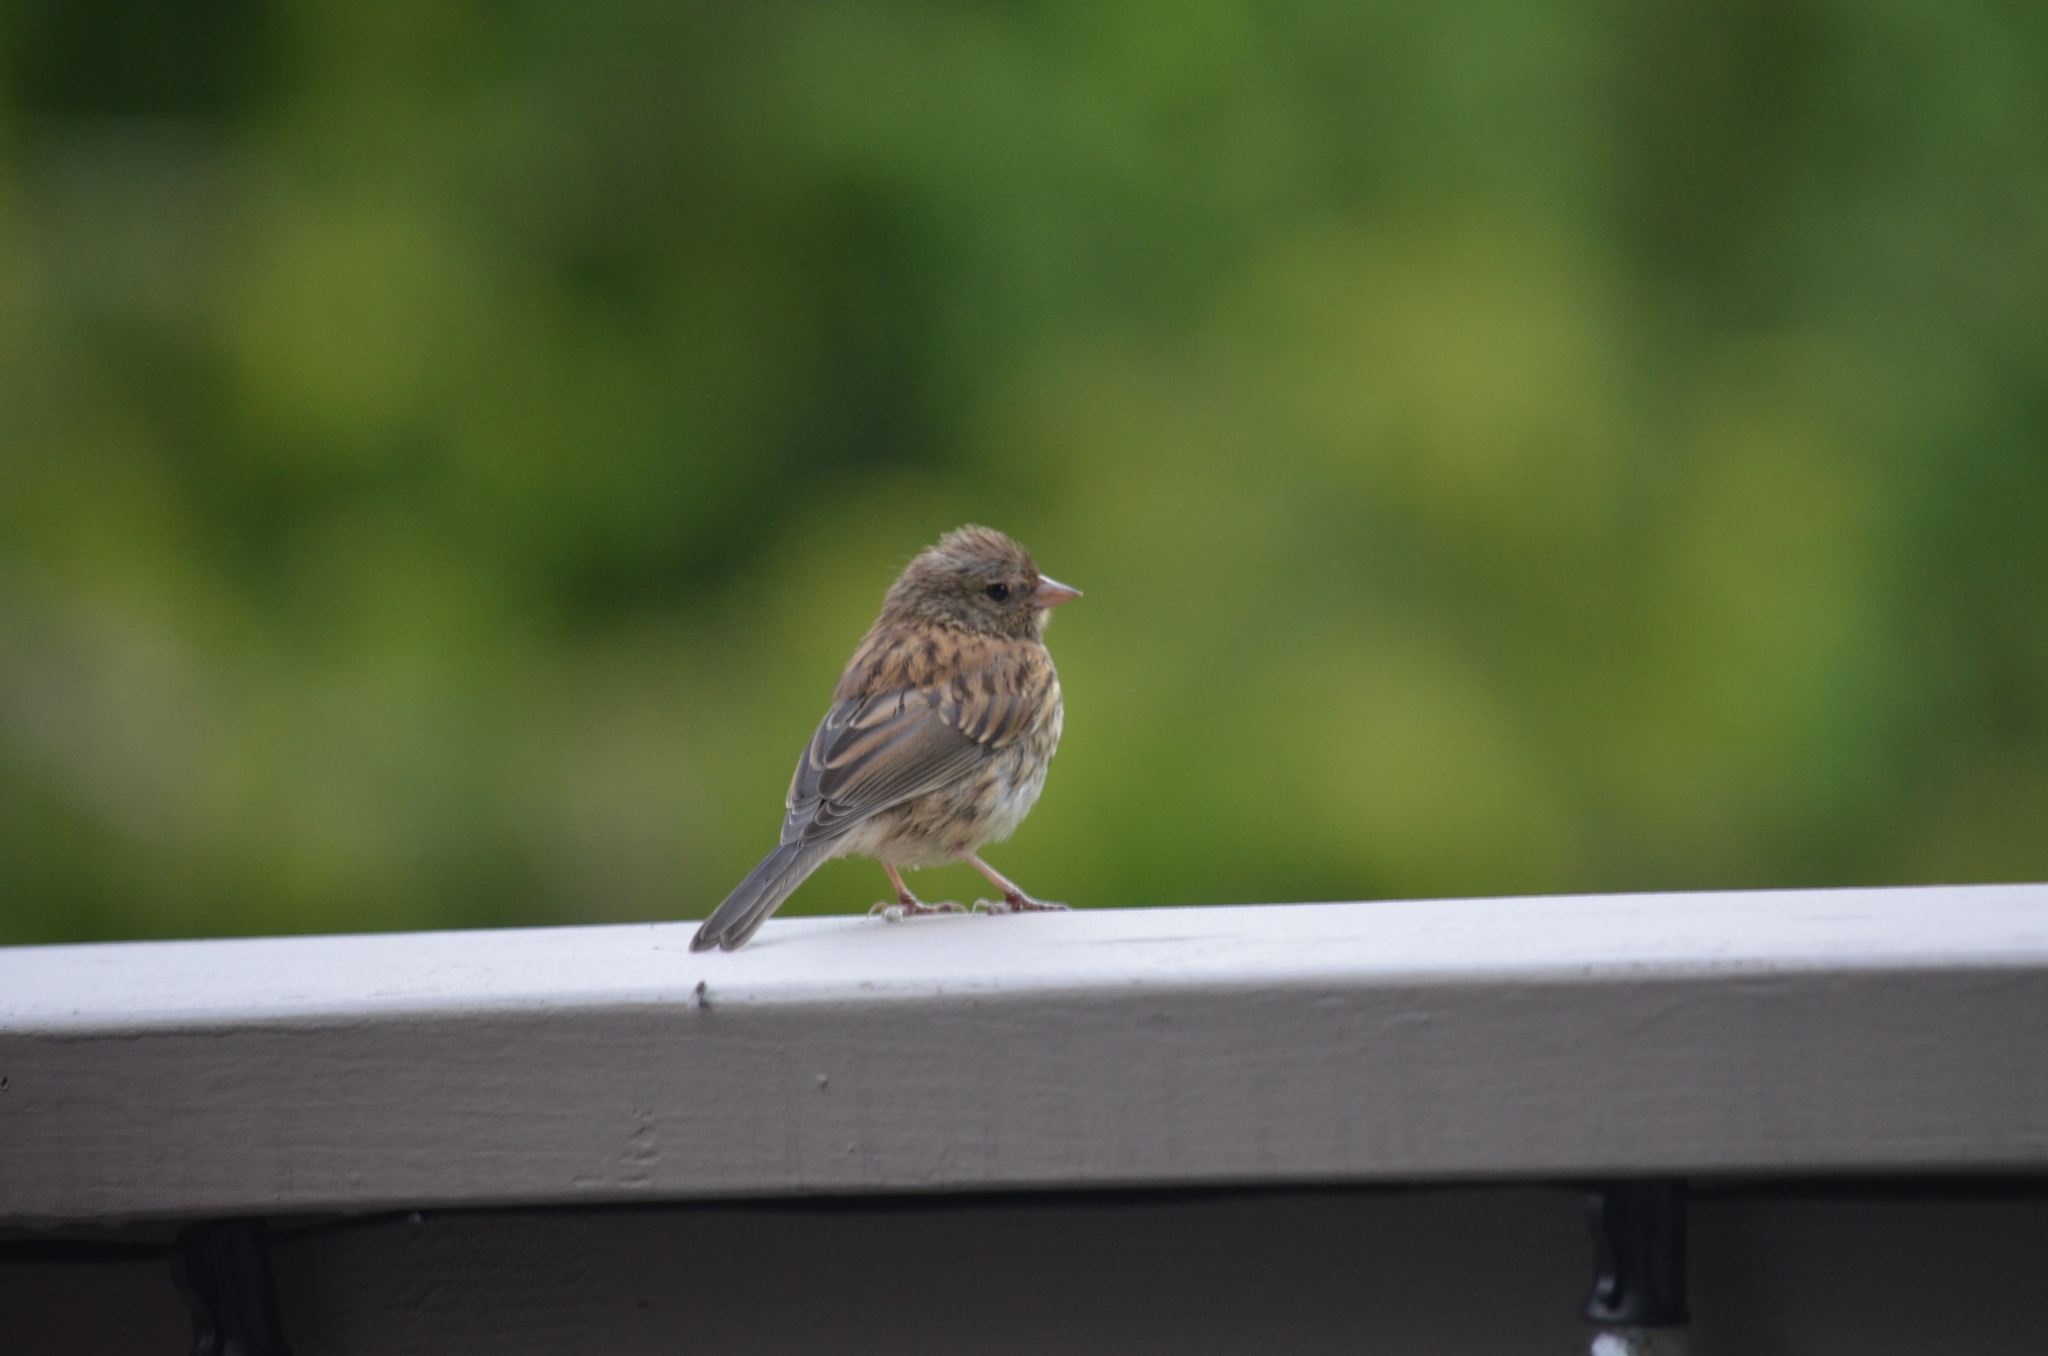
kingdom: Animalia
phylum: Chordata
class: Aves
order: Passeriformes
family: Passerellidae
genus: Junco
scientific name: Junco hyemalis
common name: Dark-eyed junco
